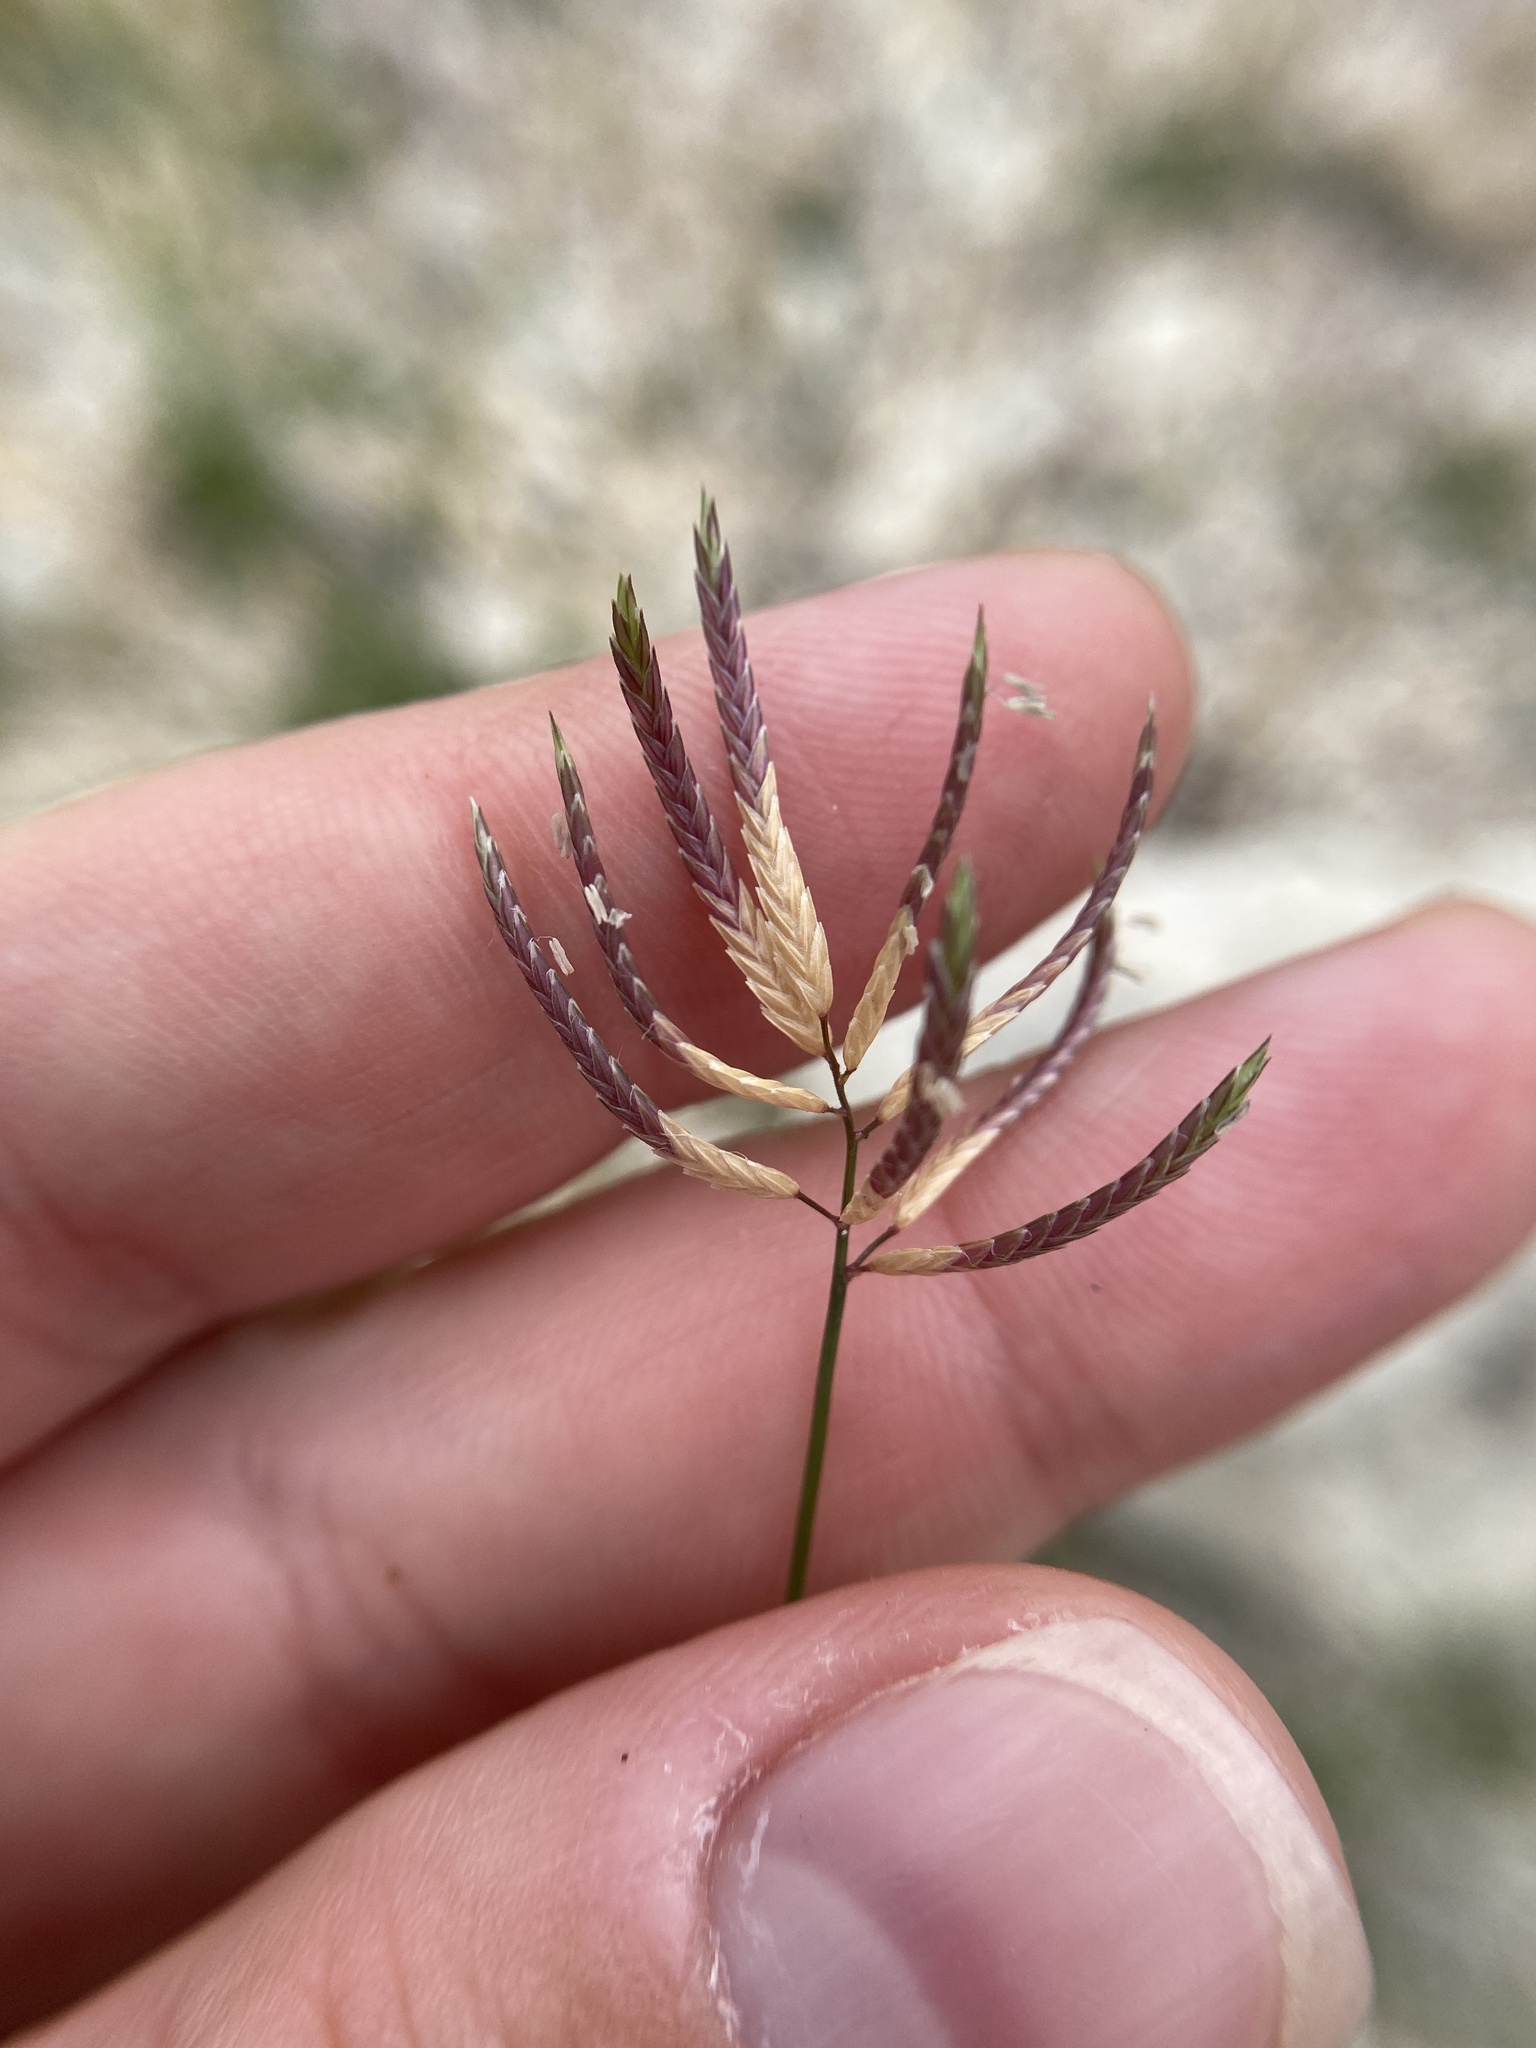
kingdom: Plantae
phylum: Tracheophyta
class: Liliopsida
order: Poales
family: Poaceae
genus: Eragrostis
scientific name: Eragrostis reptans
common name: Creeping love grass
